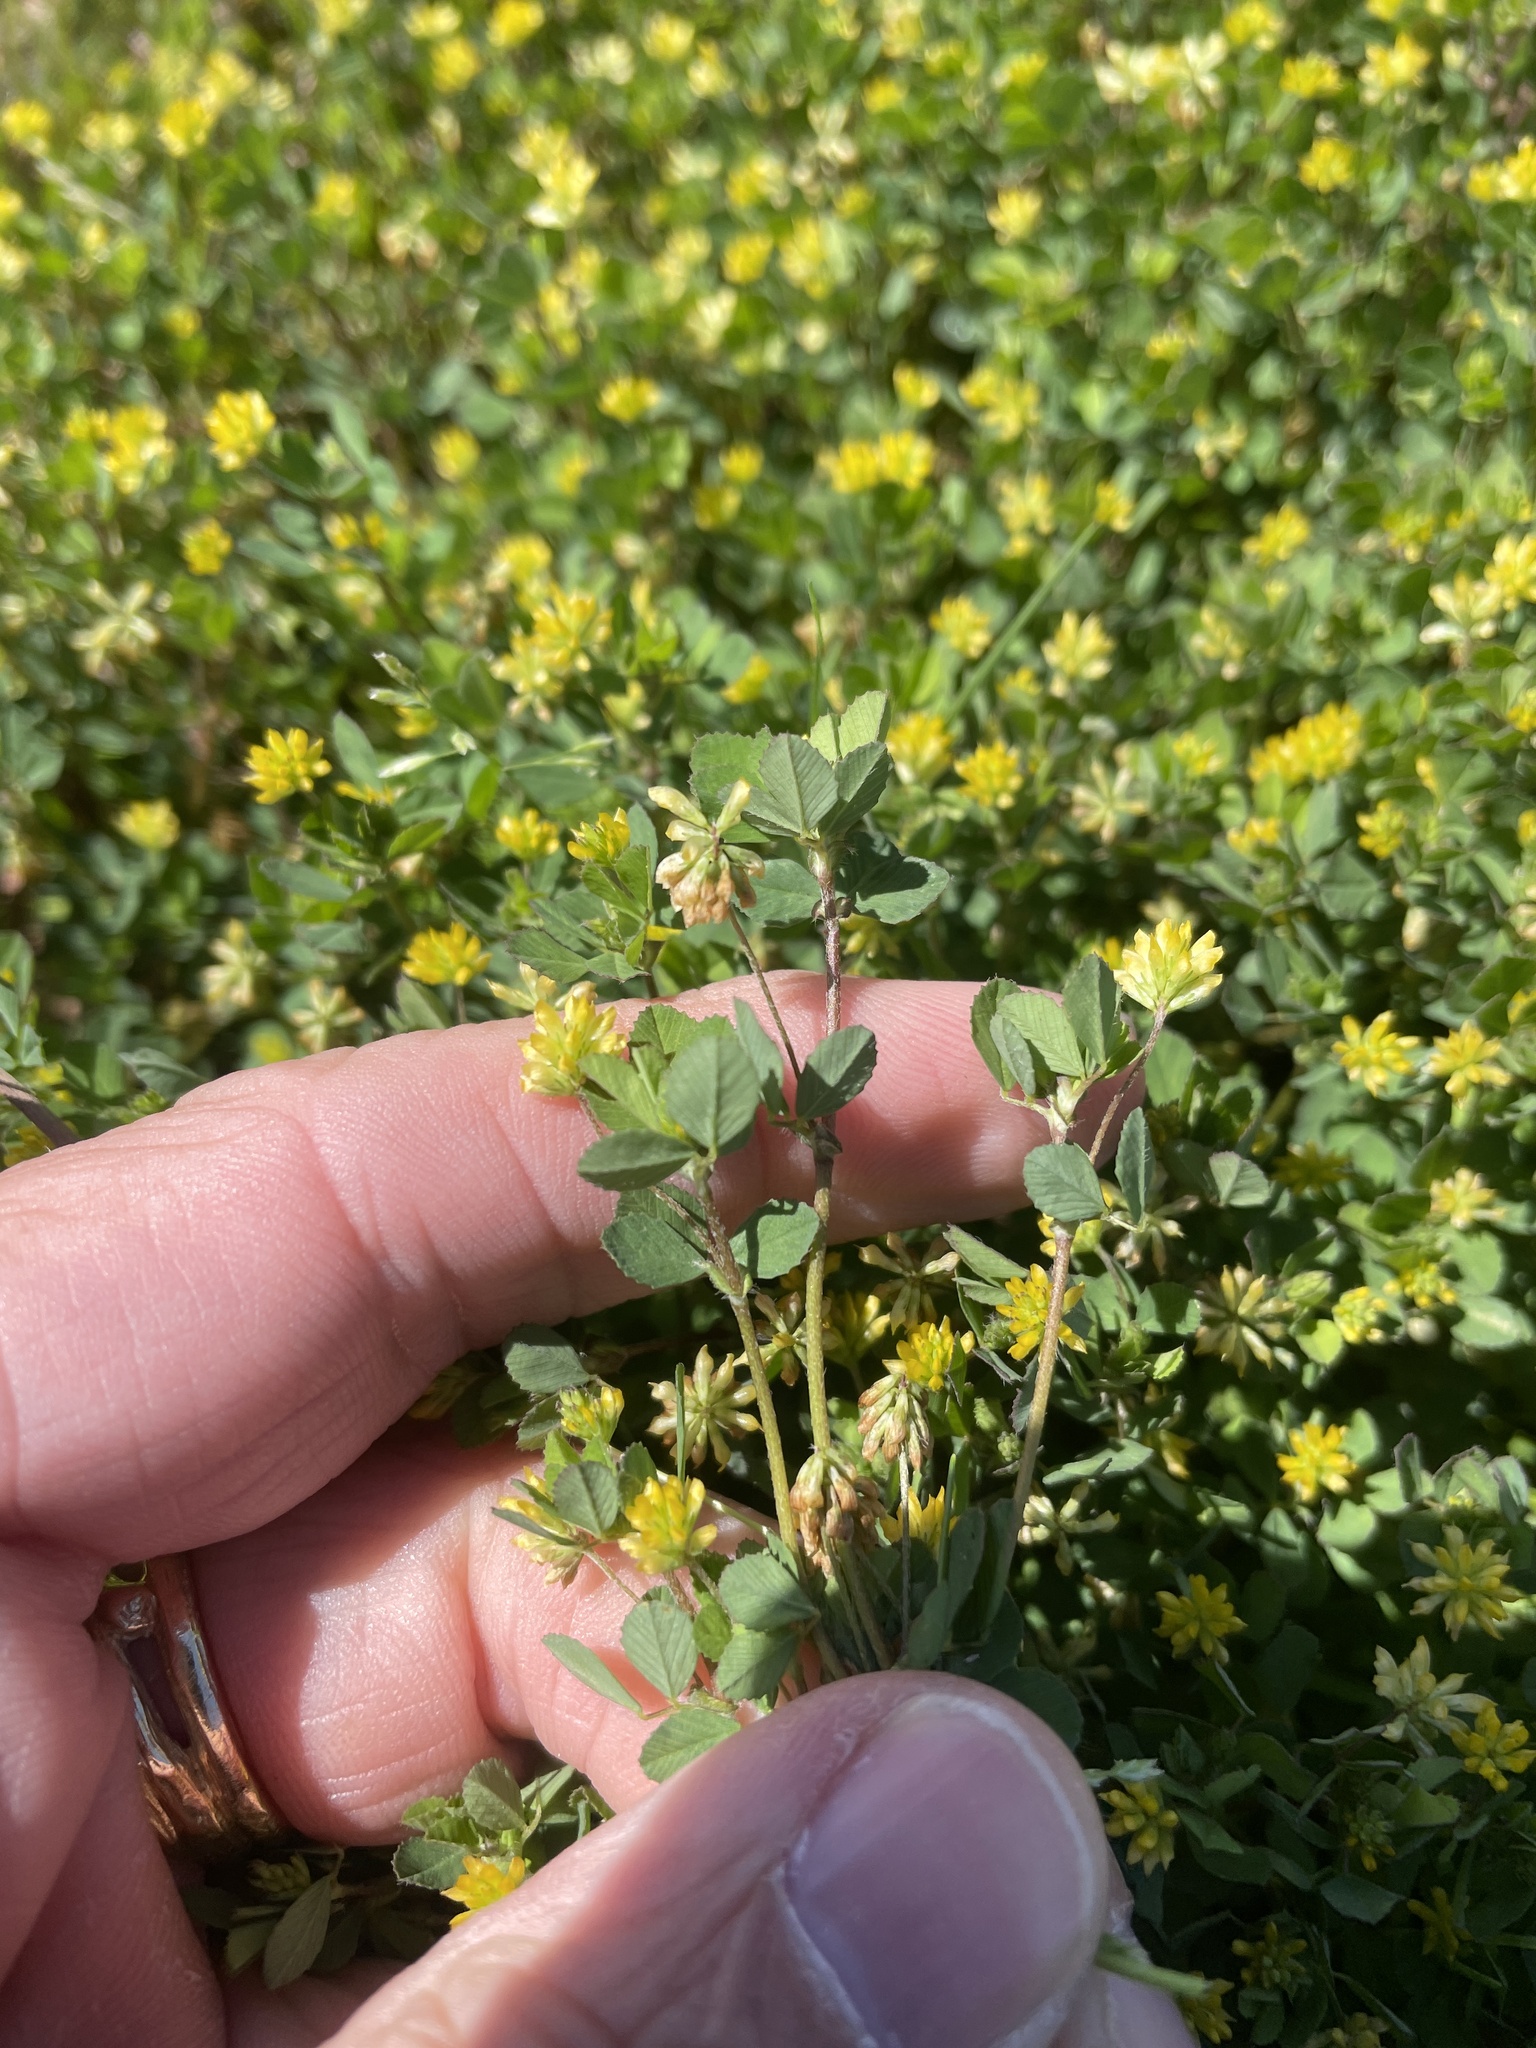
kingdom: Plantae
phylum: Tracheophyta
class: Magnoliopsida
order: Fabales
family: Fabaceae
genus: Trifolium
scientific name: Trifolium dubium
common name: Suckling clover
